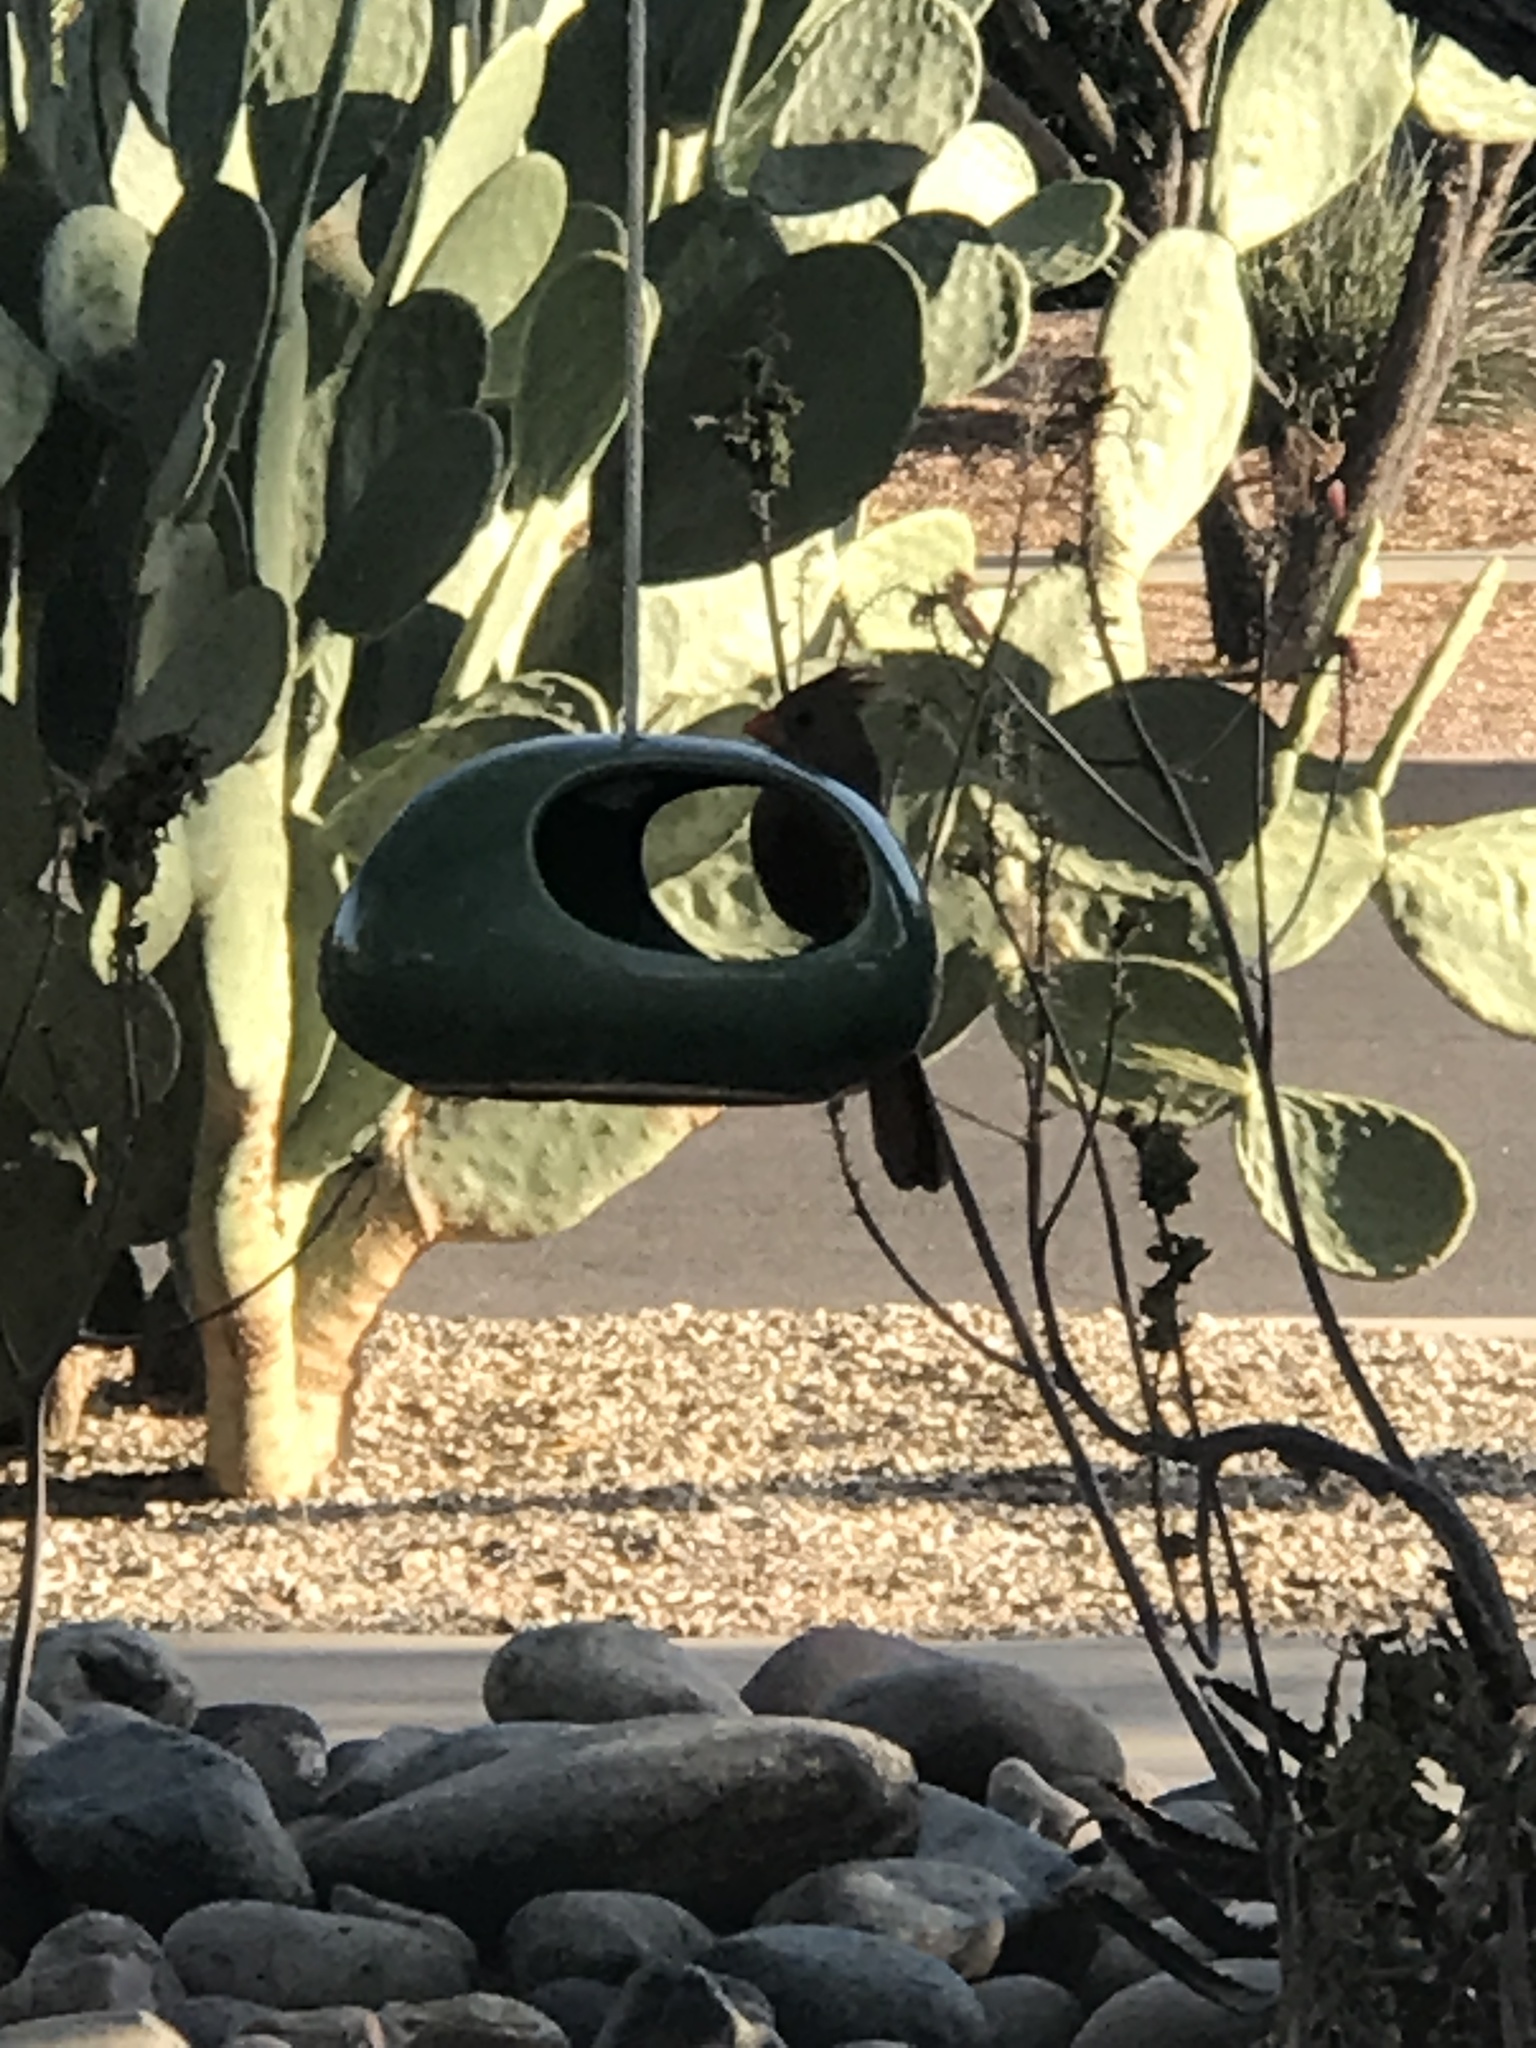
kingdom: Animalia
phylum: Chordata
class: Aves
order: Passeriformes
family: Cardinalidae
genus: Cardinalis
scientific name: Cardinalis cardinalis
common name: Northern cardinal
